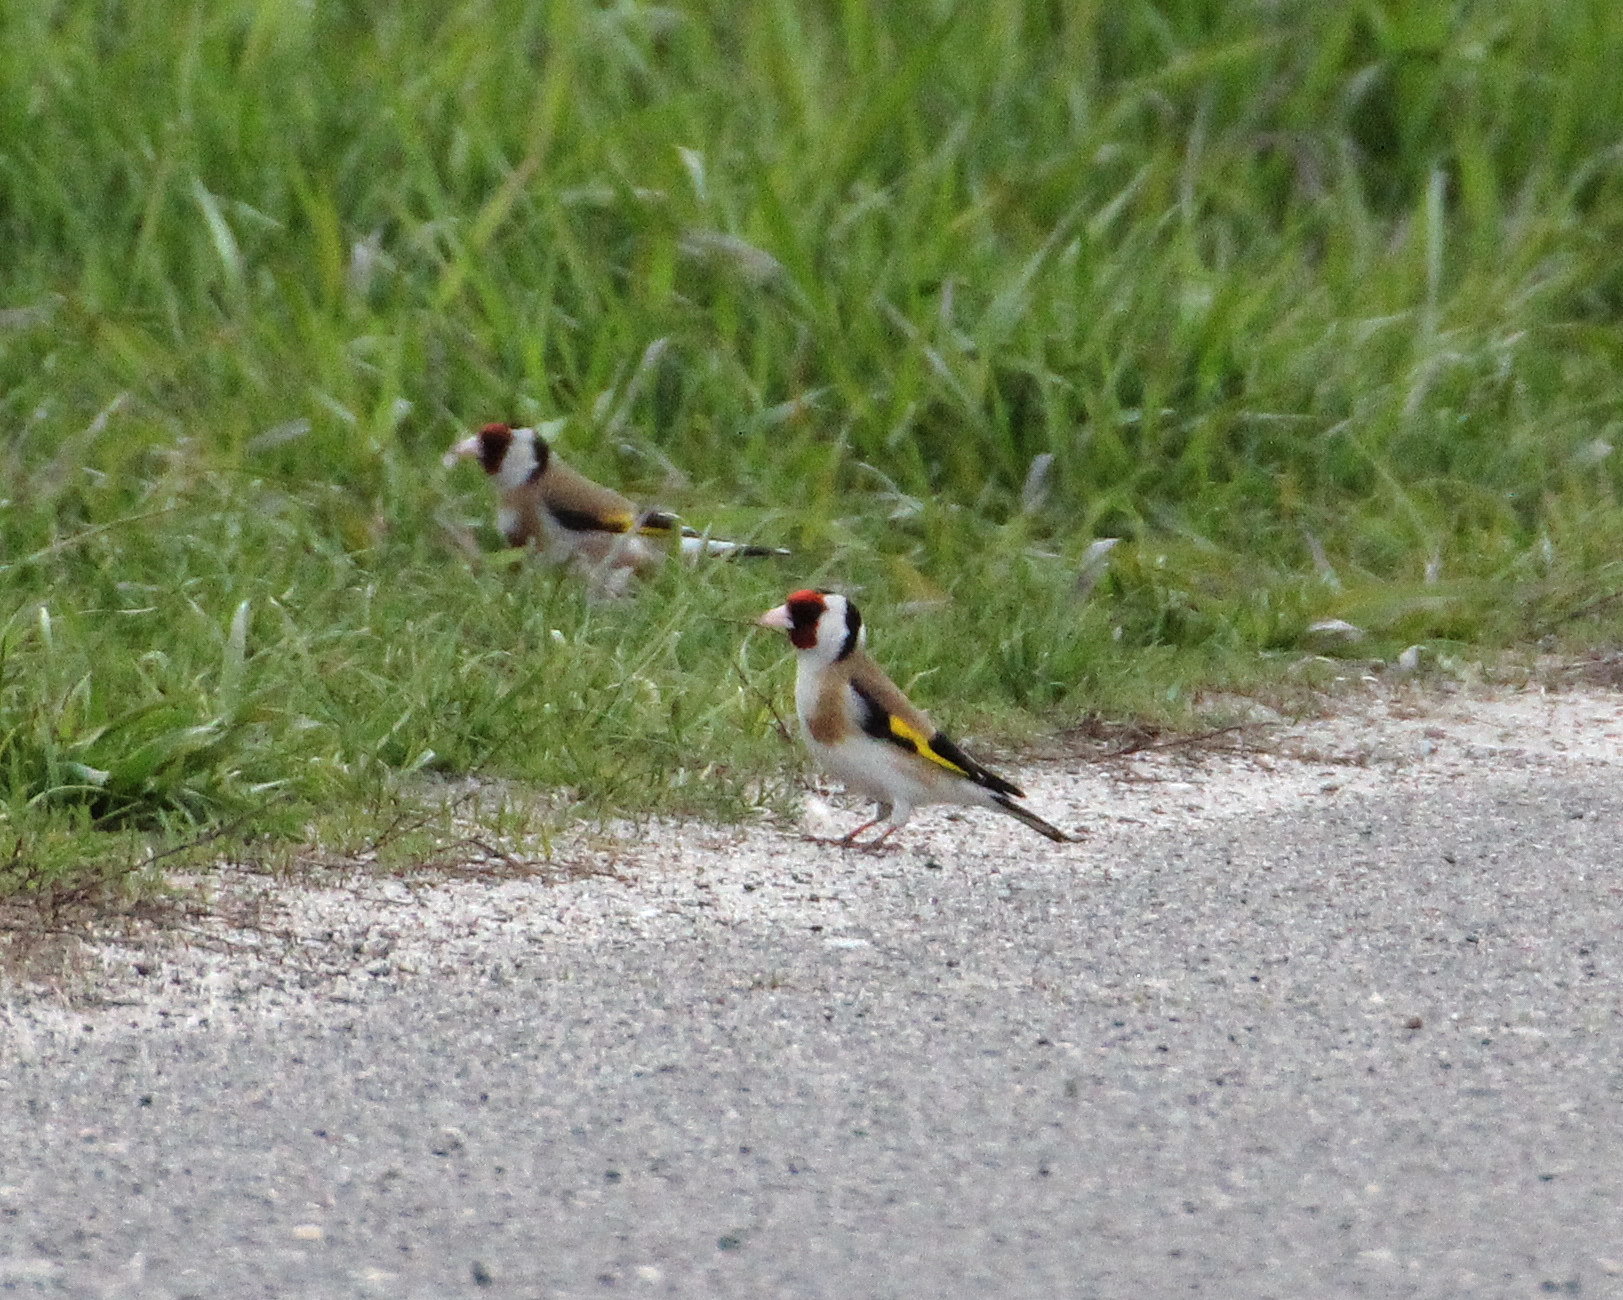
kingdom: Animalia
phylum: Chordata
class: Aves
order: Passeriformes
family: Fringillidae
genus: Carduelis
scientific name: Carduelis carduelis
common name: European goldfinch
